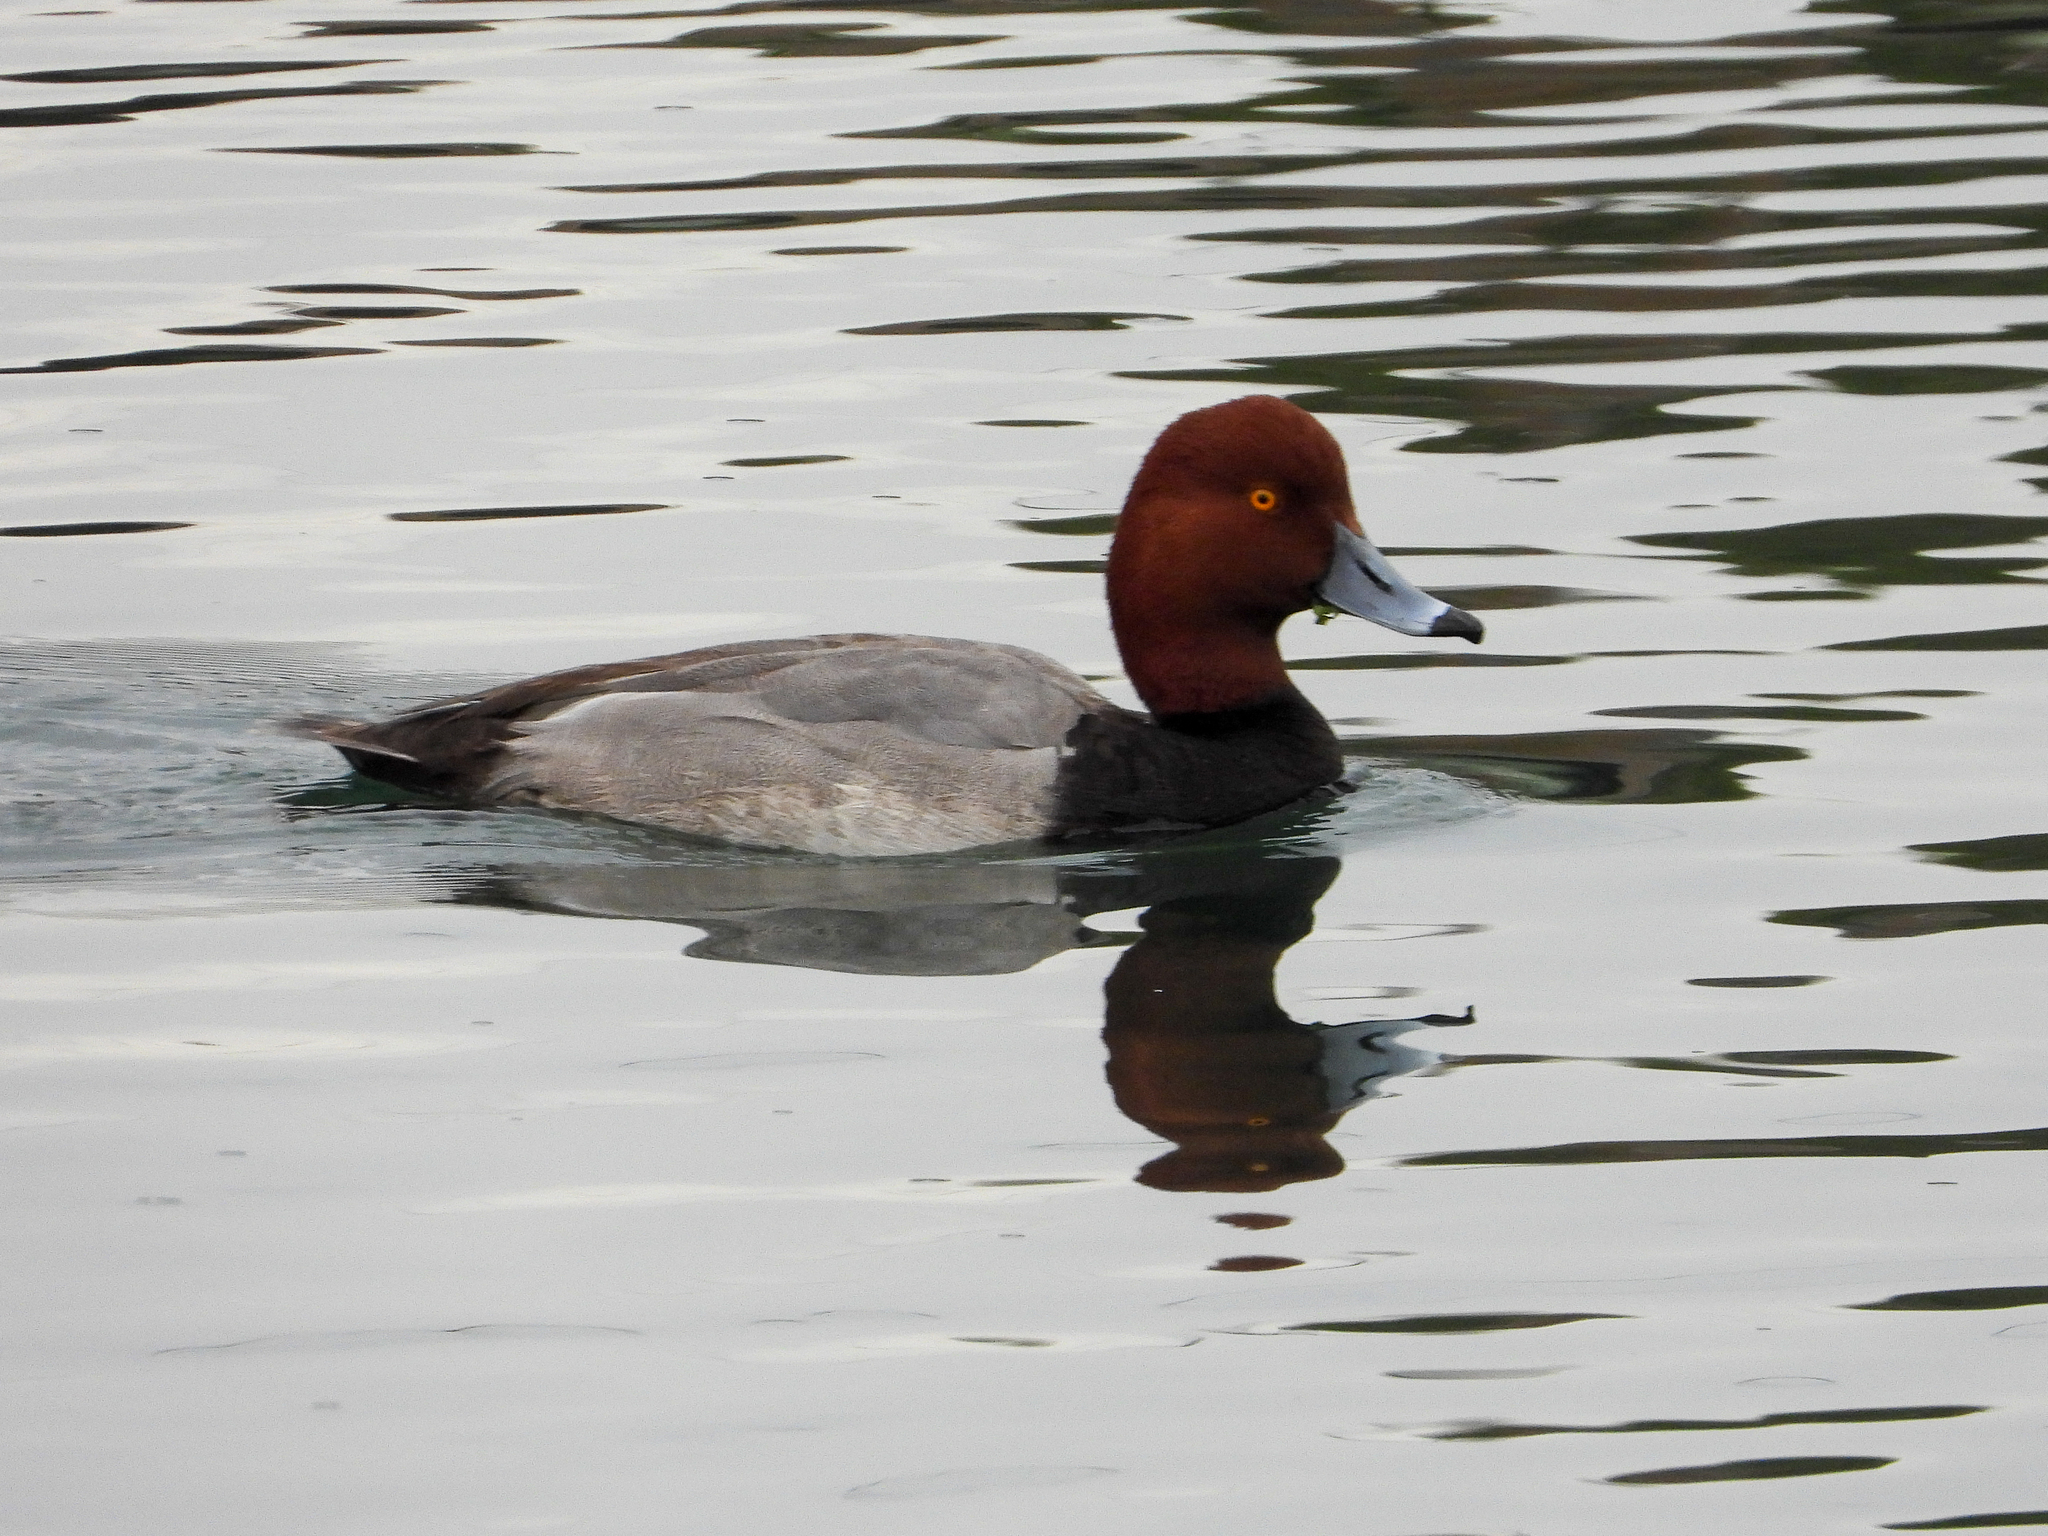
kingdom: Animalia
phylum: Chordata
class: Aves
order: Anseriformes
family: Anatidae
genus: Aythya
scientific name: Aythya americana
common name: Redhead
